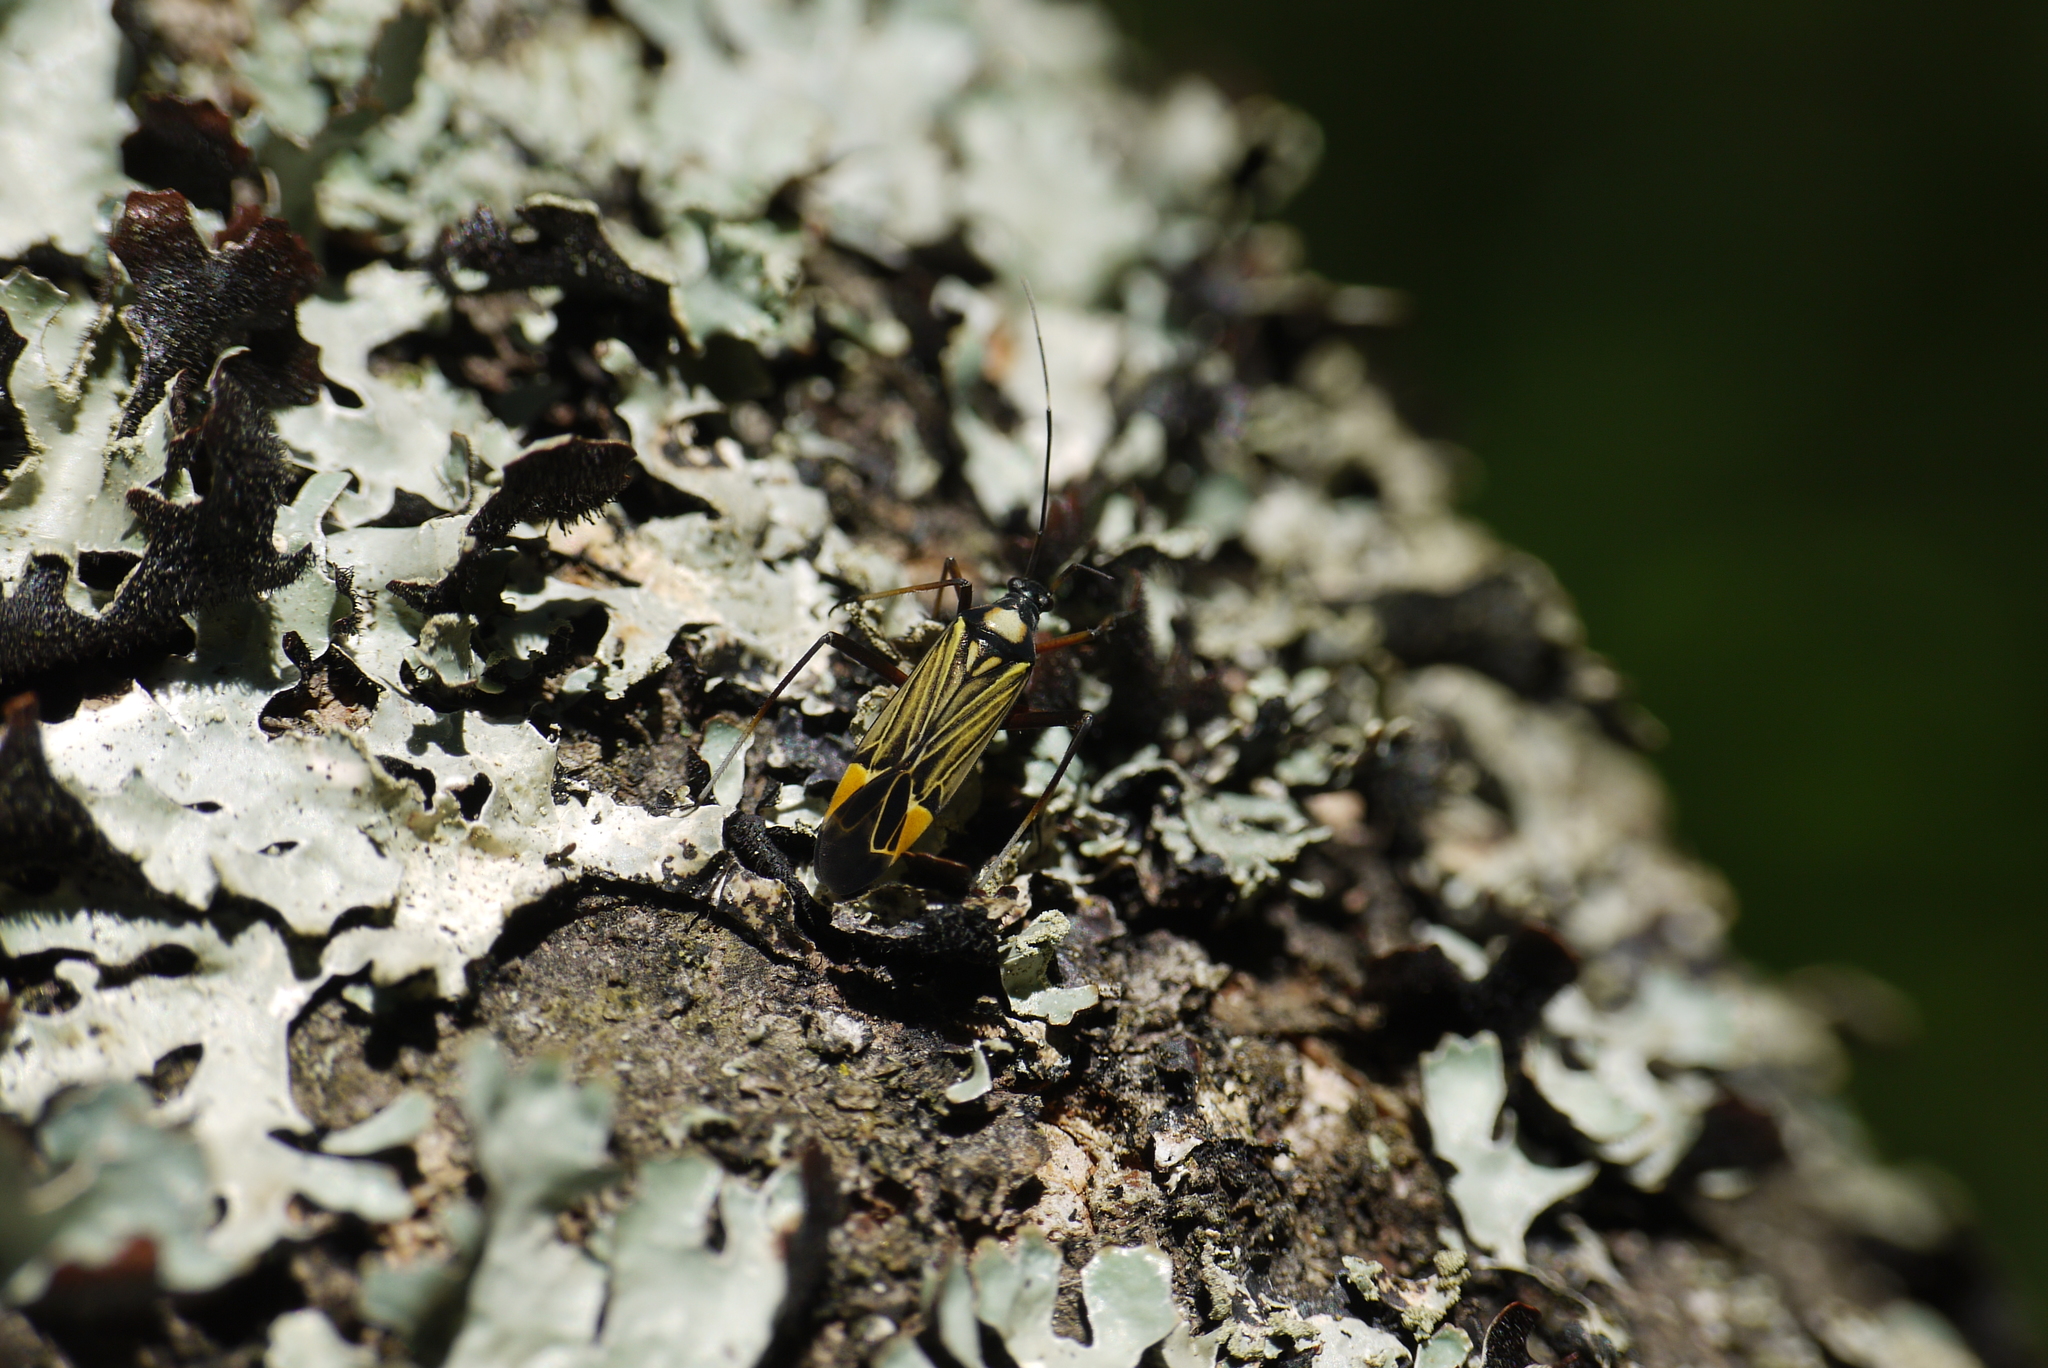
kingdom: Animalia
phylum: Arthropoda
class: Insecta
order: Hemiptera
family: Miridae
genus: Miris
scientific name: Miris striatus
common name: Fine streaked bugkin
